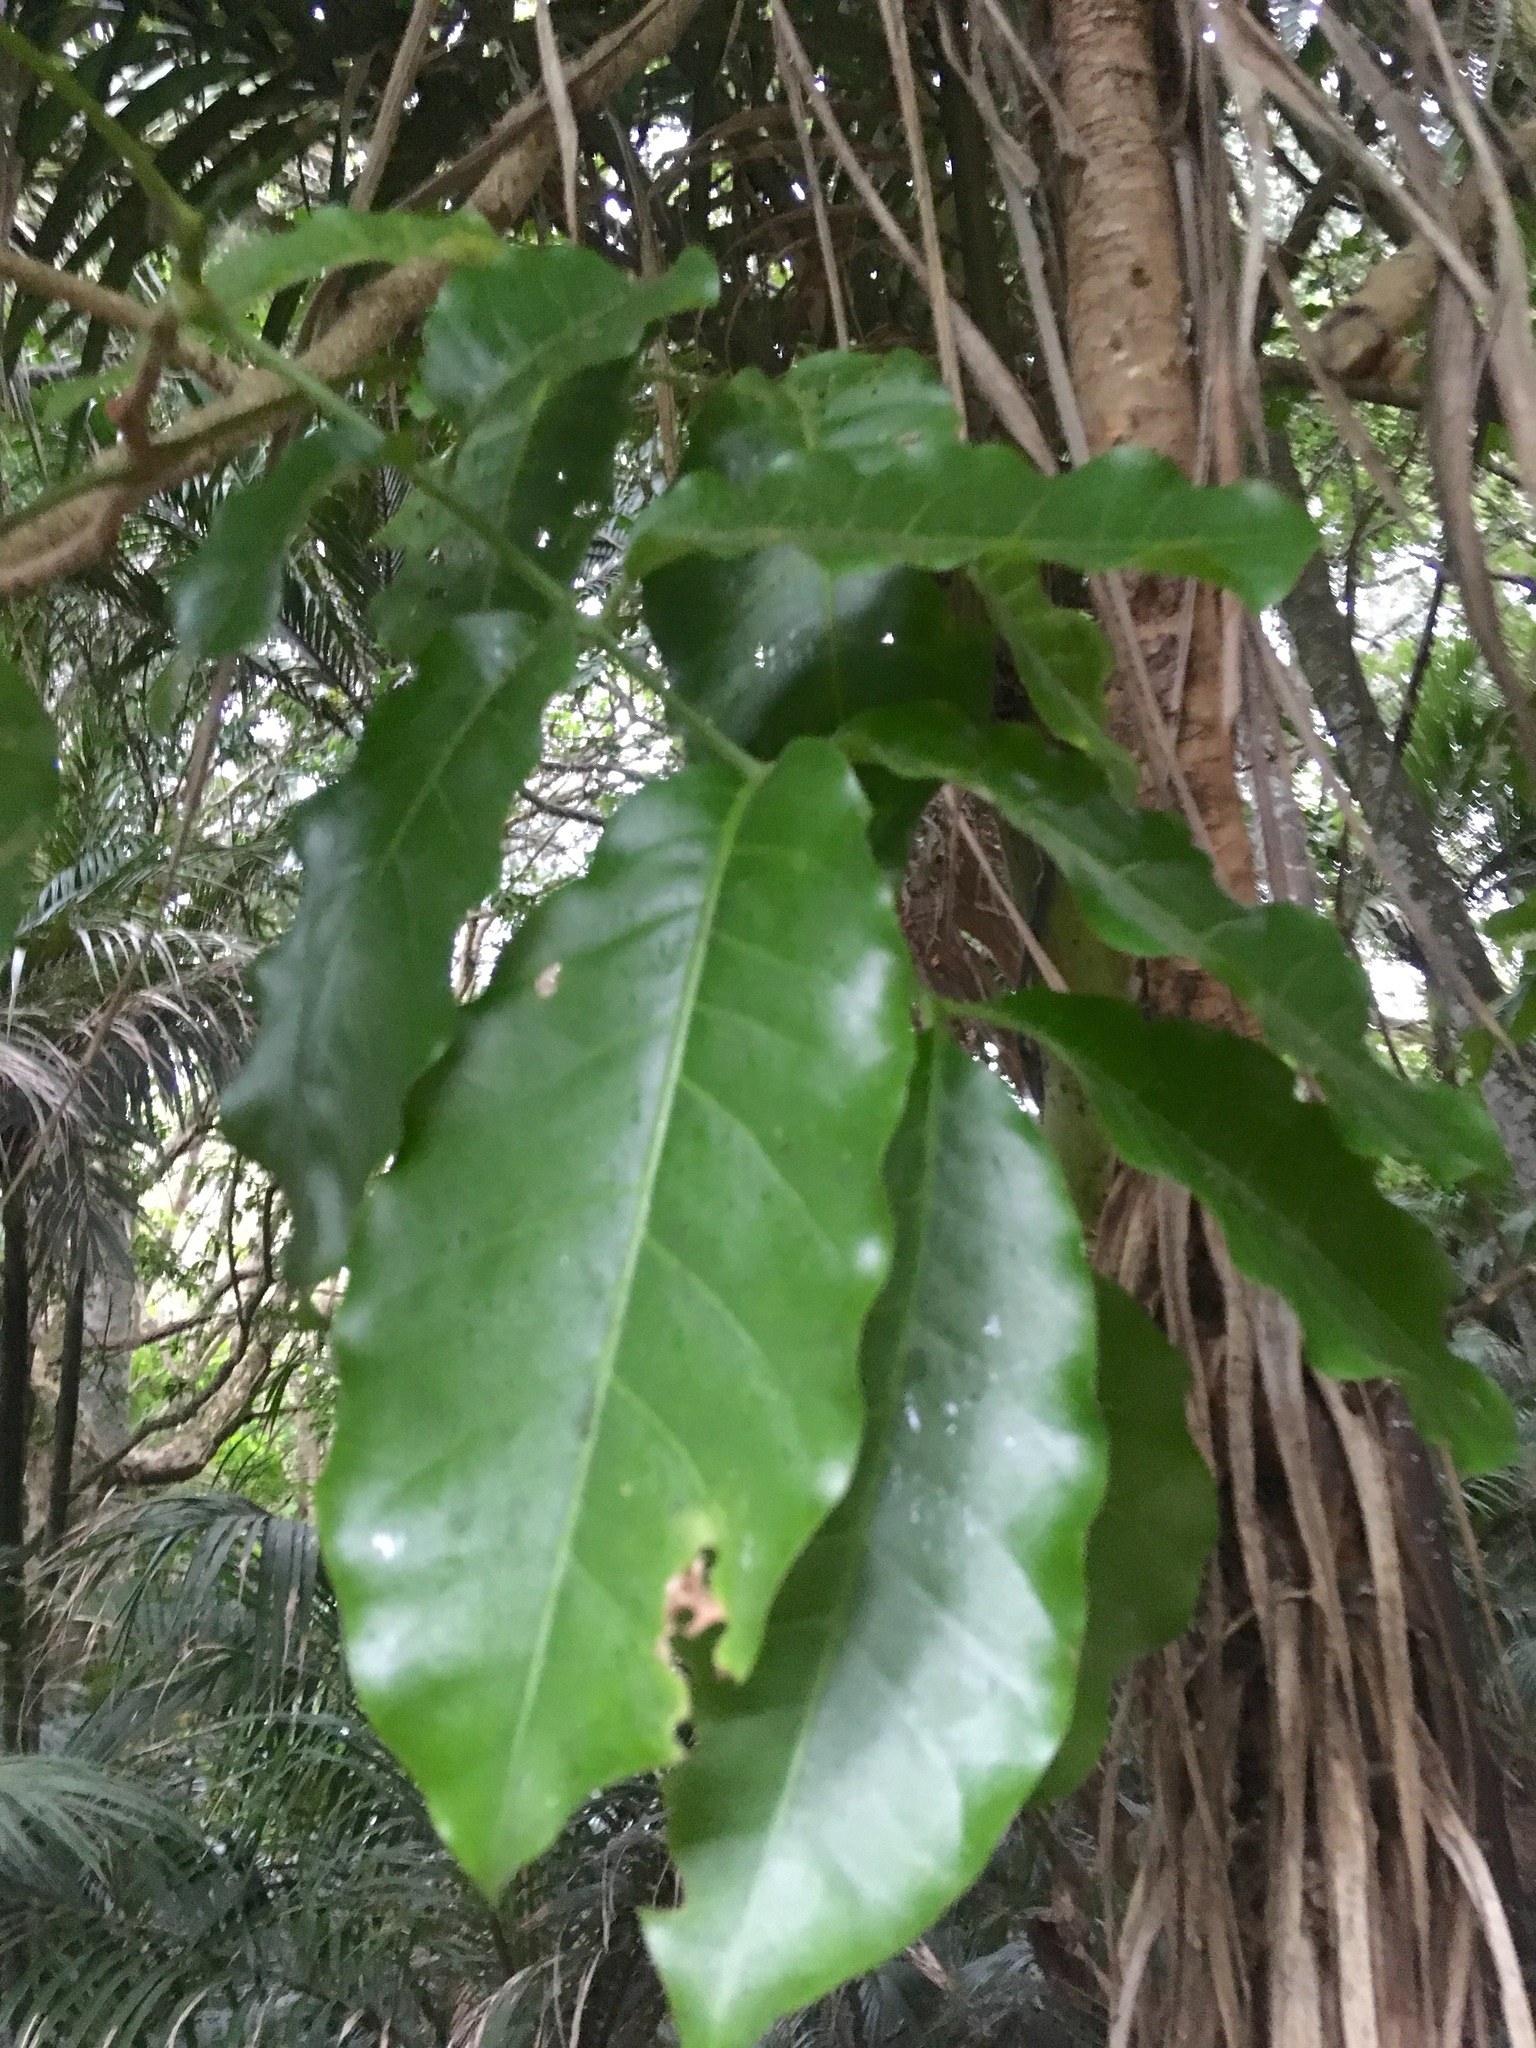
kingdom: Plantae
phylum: Tracheophyta
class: Liliopsida
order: Liliales
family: Ripogonaceae
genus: Ripogonum
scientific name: Ripogonum scandens
